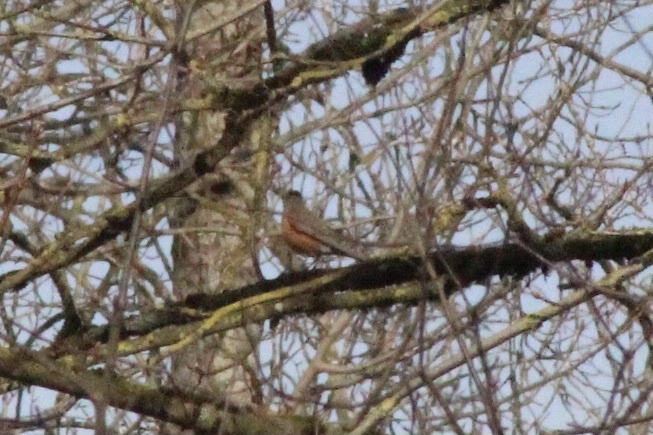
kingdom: Animalia
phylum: Chordata
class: Aves
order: Passeriformes
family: Turdidae
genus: Turdus
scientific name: Turdus migratorius
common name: American robin
